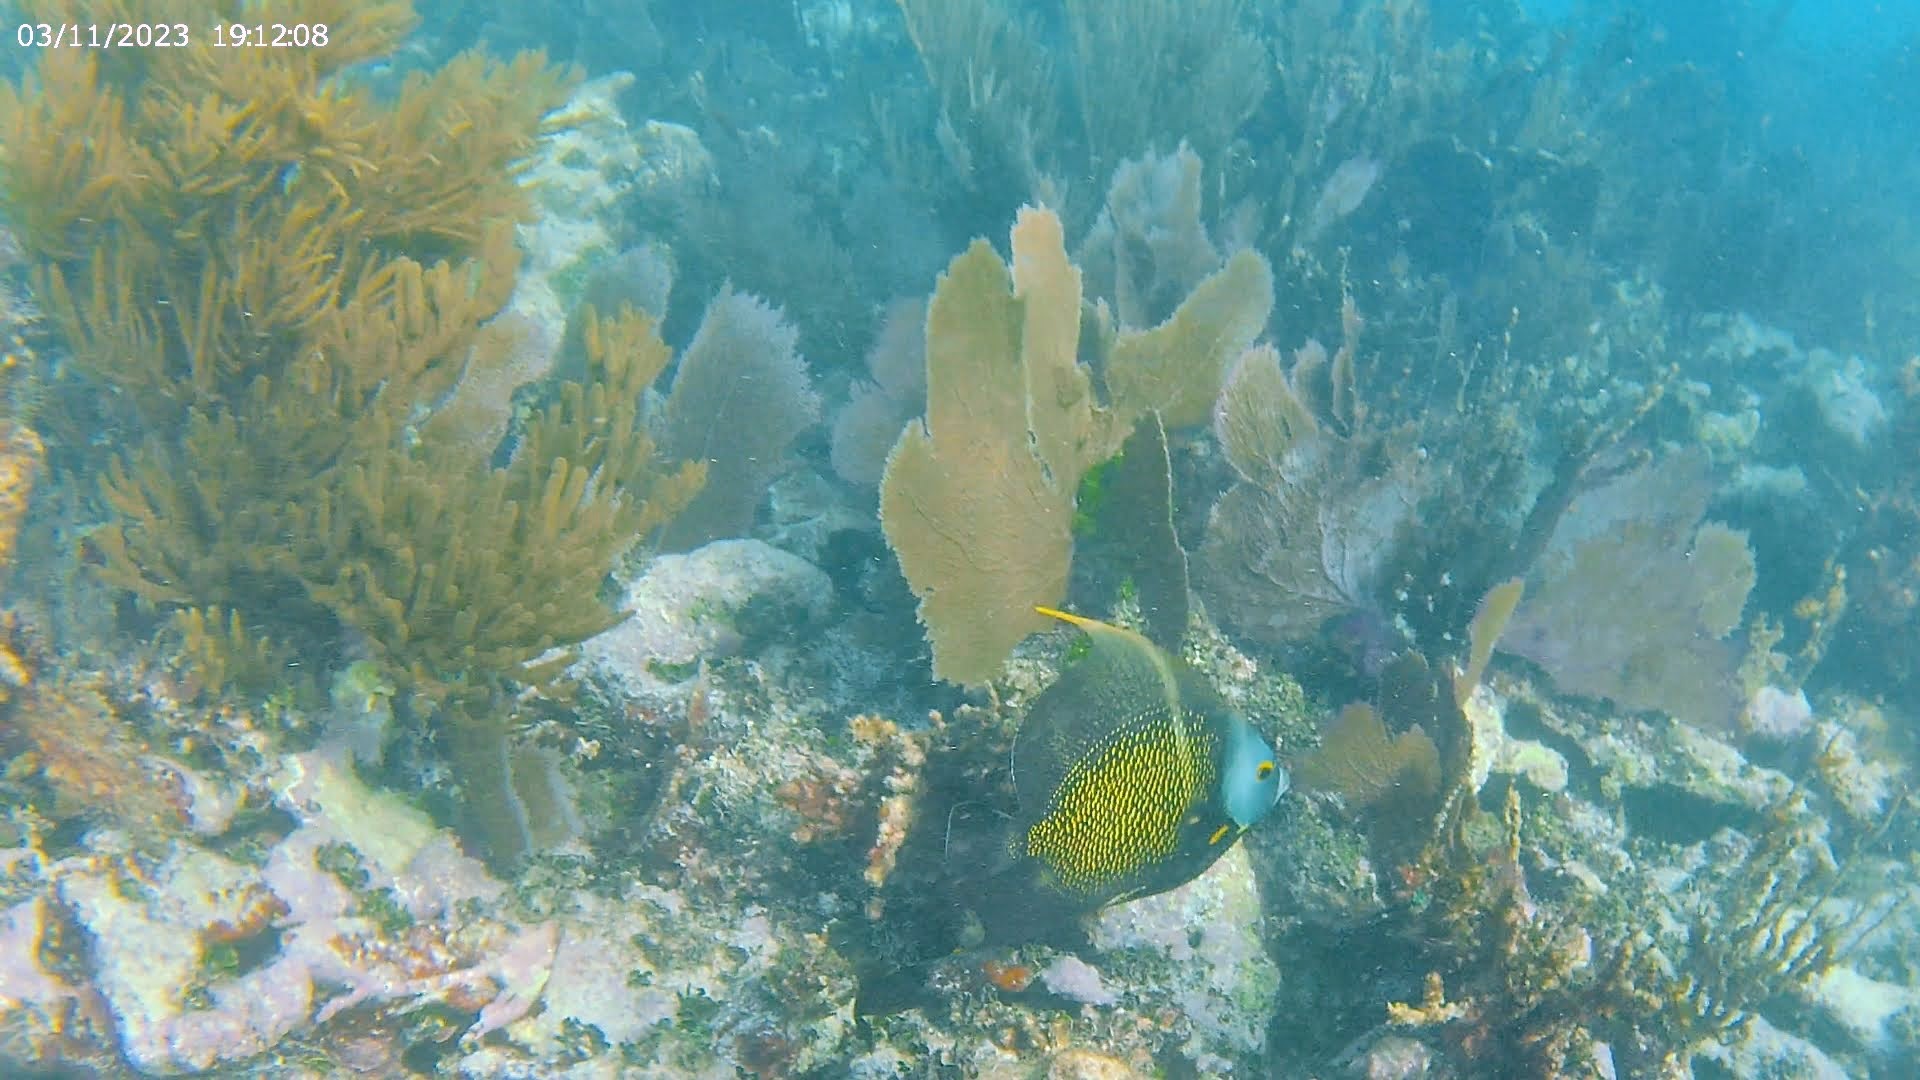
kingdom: Animalia
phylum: Chordata
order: Perciformes
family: Pomacanthidae
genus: Pomacanthus
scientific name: Pomacanthus paru
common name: French angelfish
